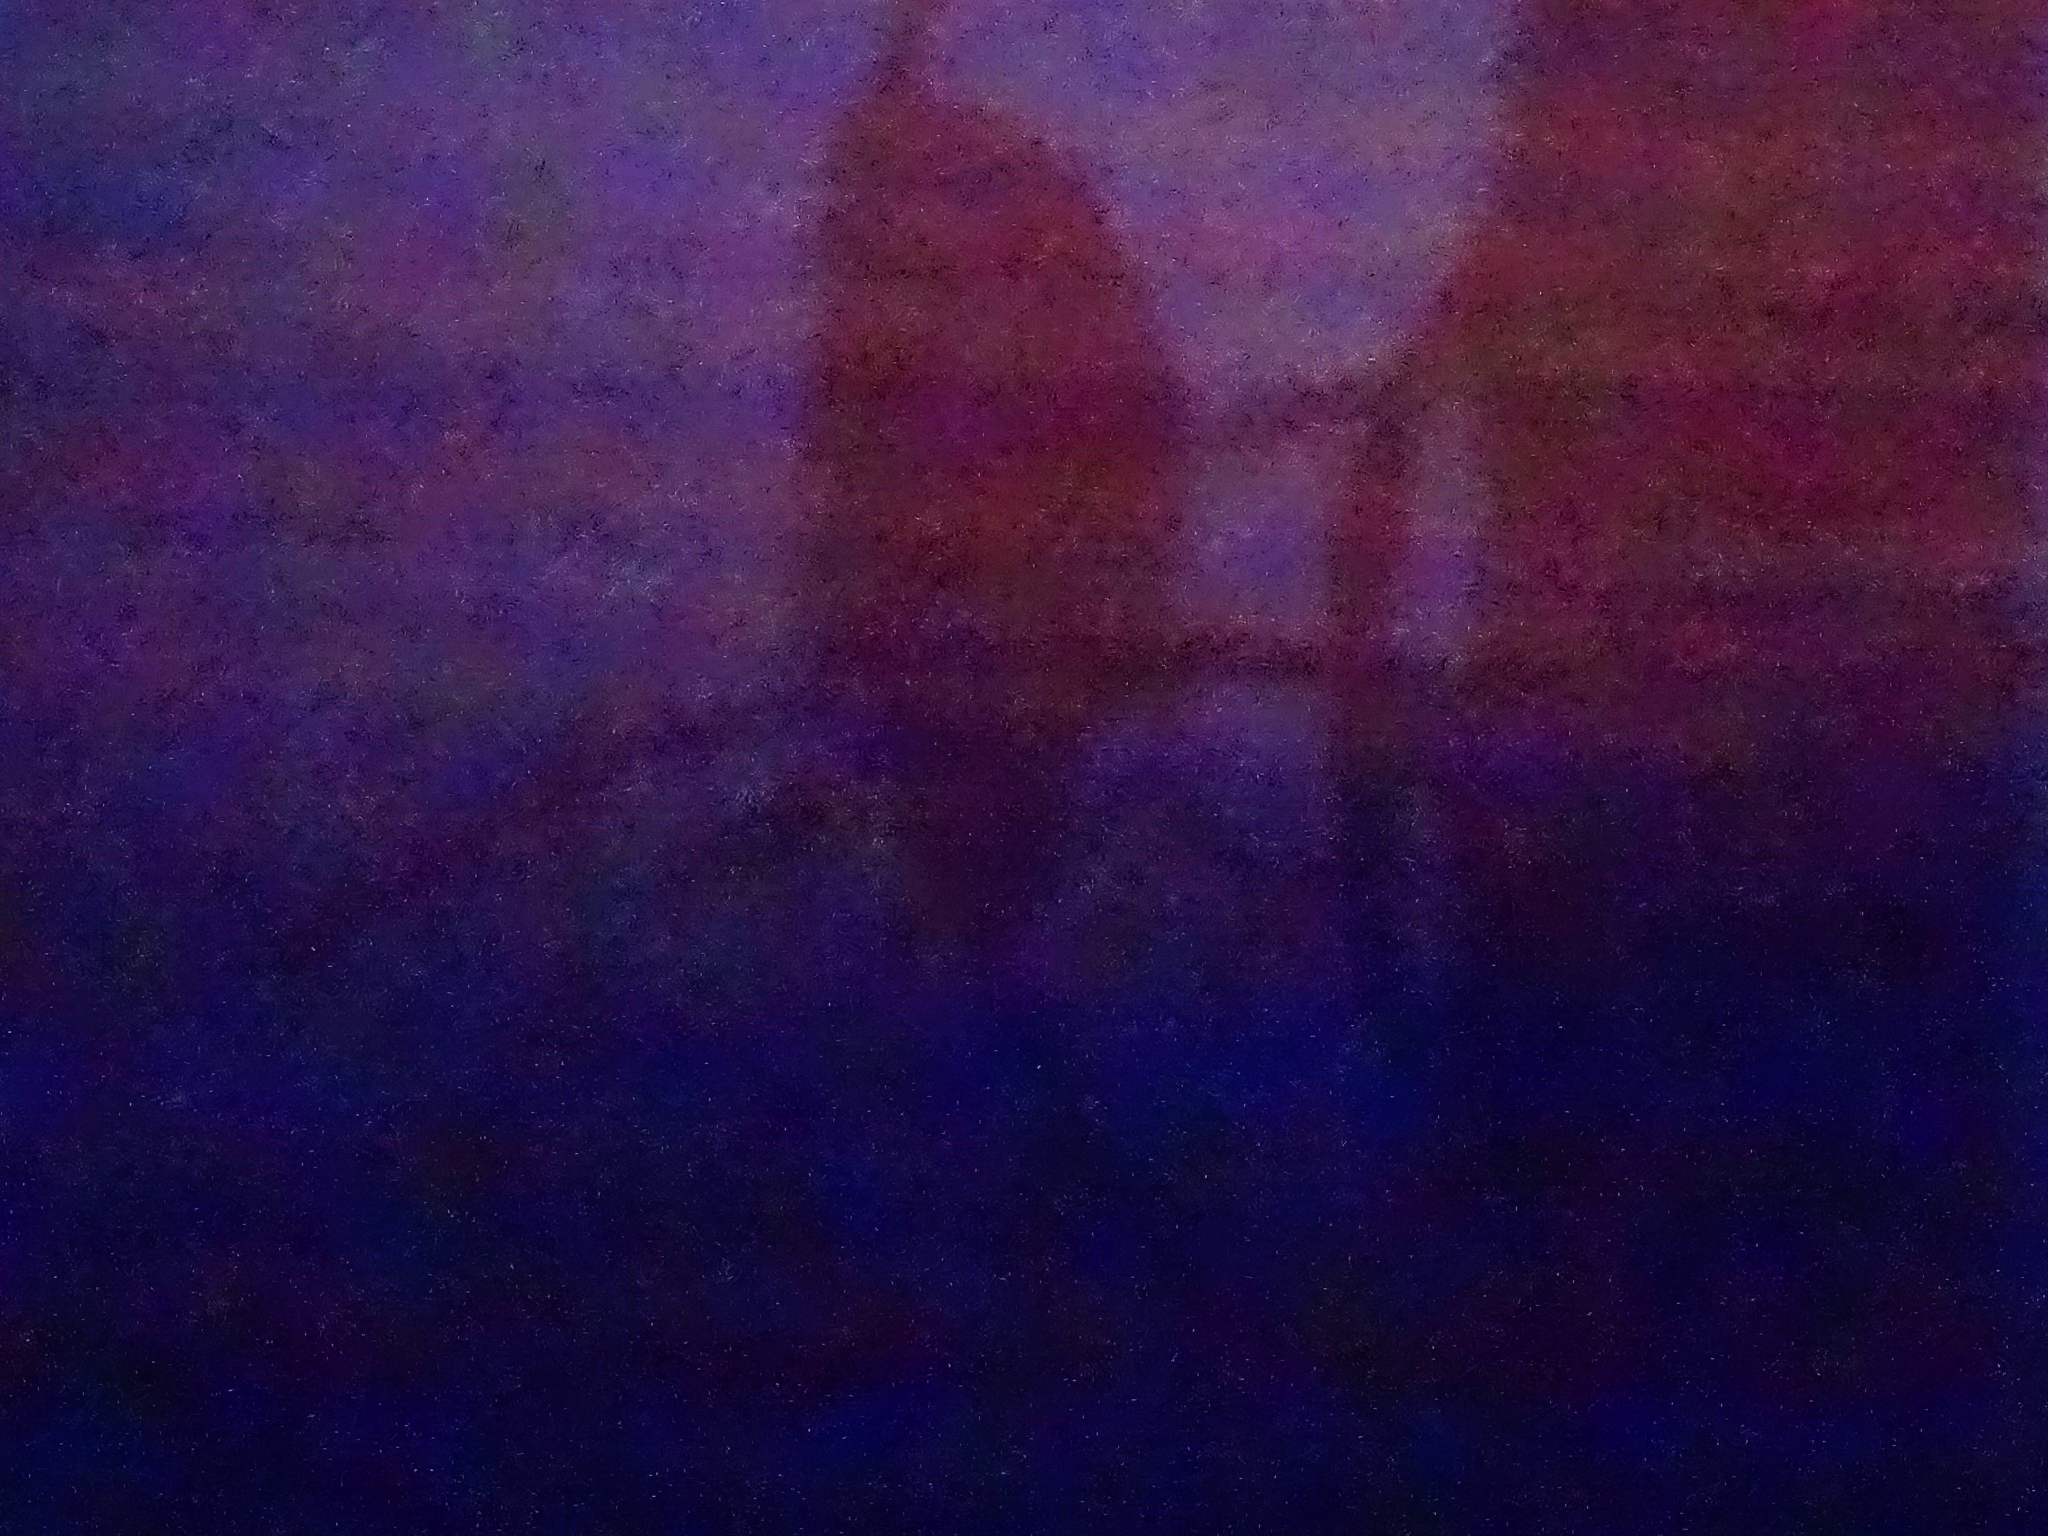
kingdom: Animalia
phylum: Chordata
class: Aves
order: Strigiformes
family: Strigidae
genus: Bubo
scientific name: Bubo bubo
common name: Eurasian eagle-owl
